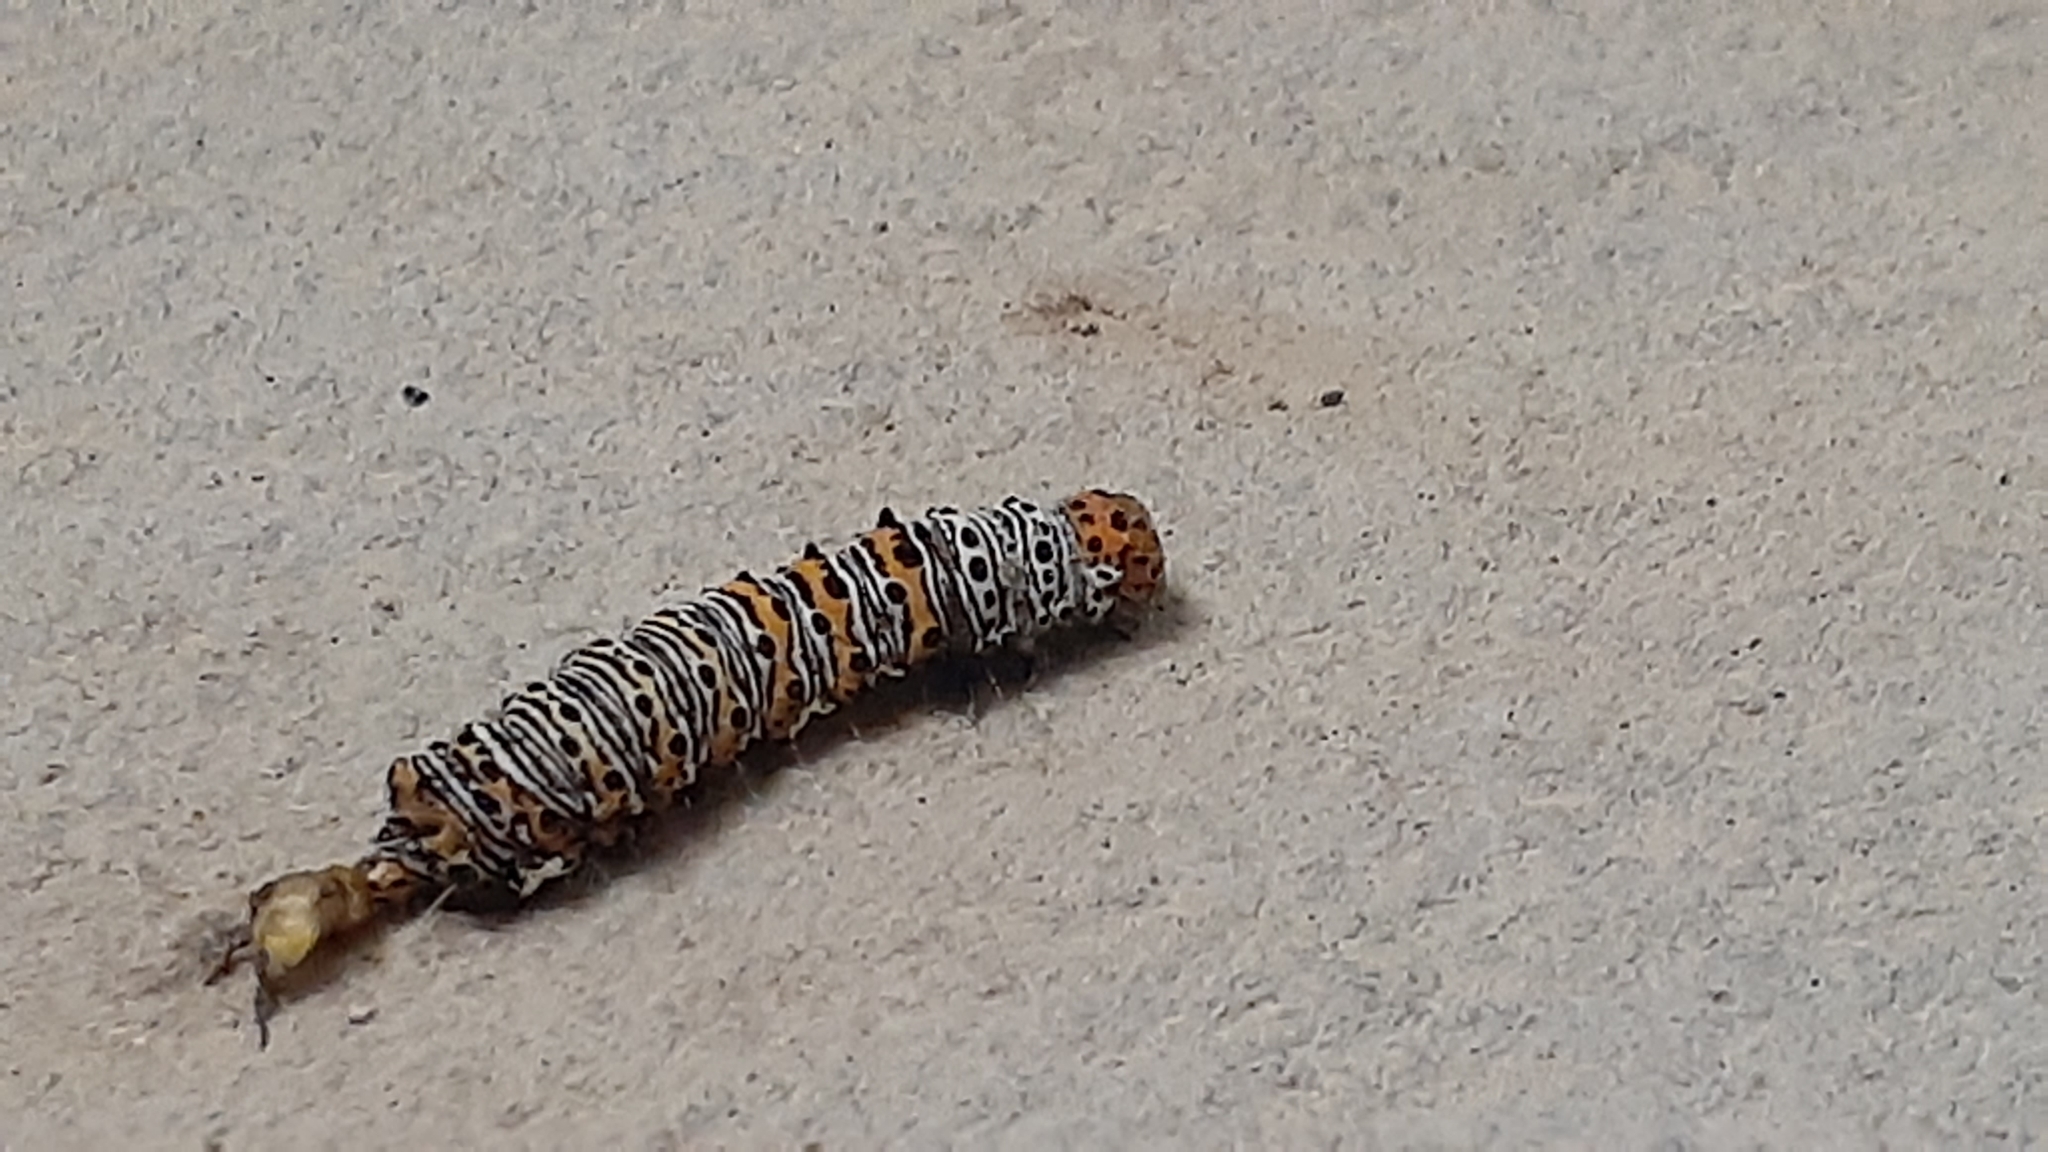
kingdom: Animalia
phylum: Arthropoda
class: Insecta
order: Lepidoptera
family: Noctuidae
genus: Alypia
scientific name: Alypia octomaculata
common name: Eight-spotted forester
